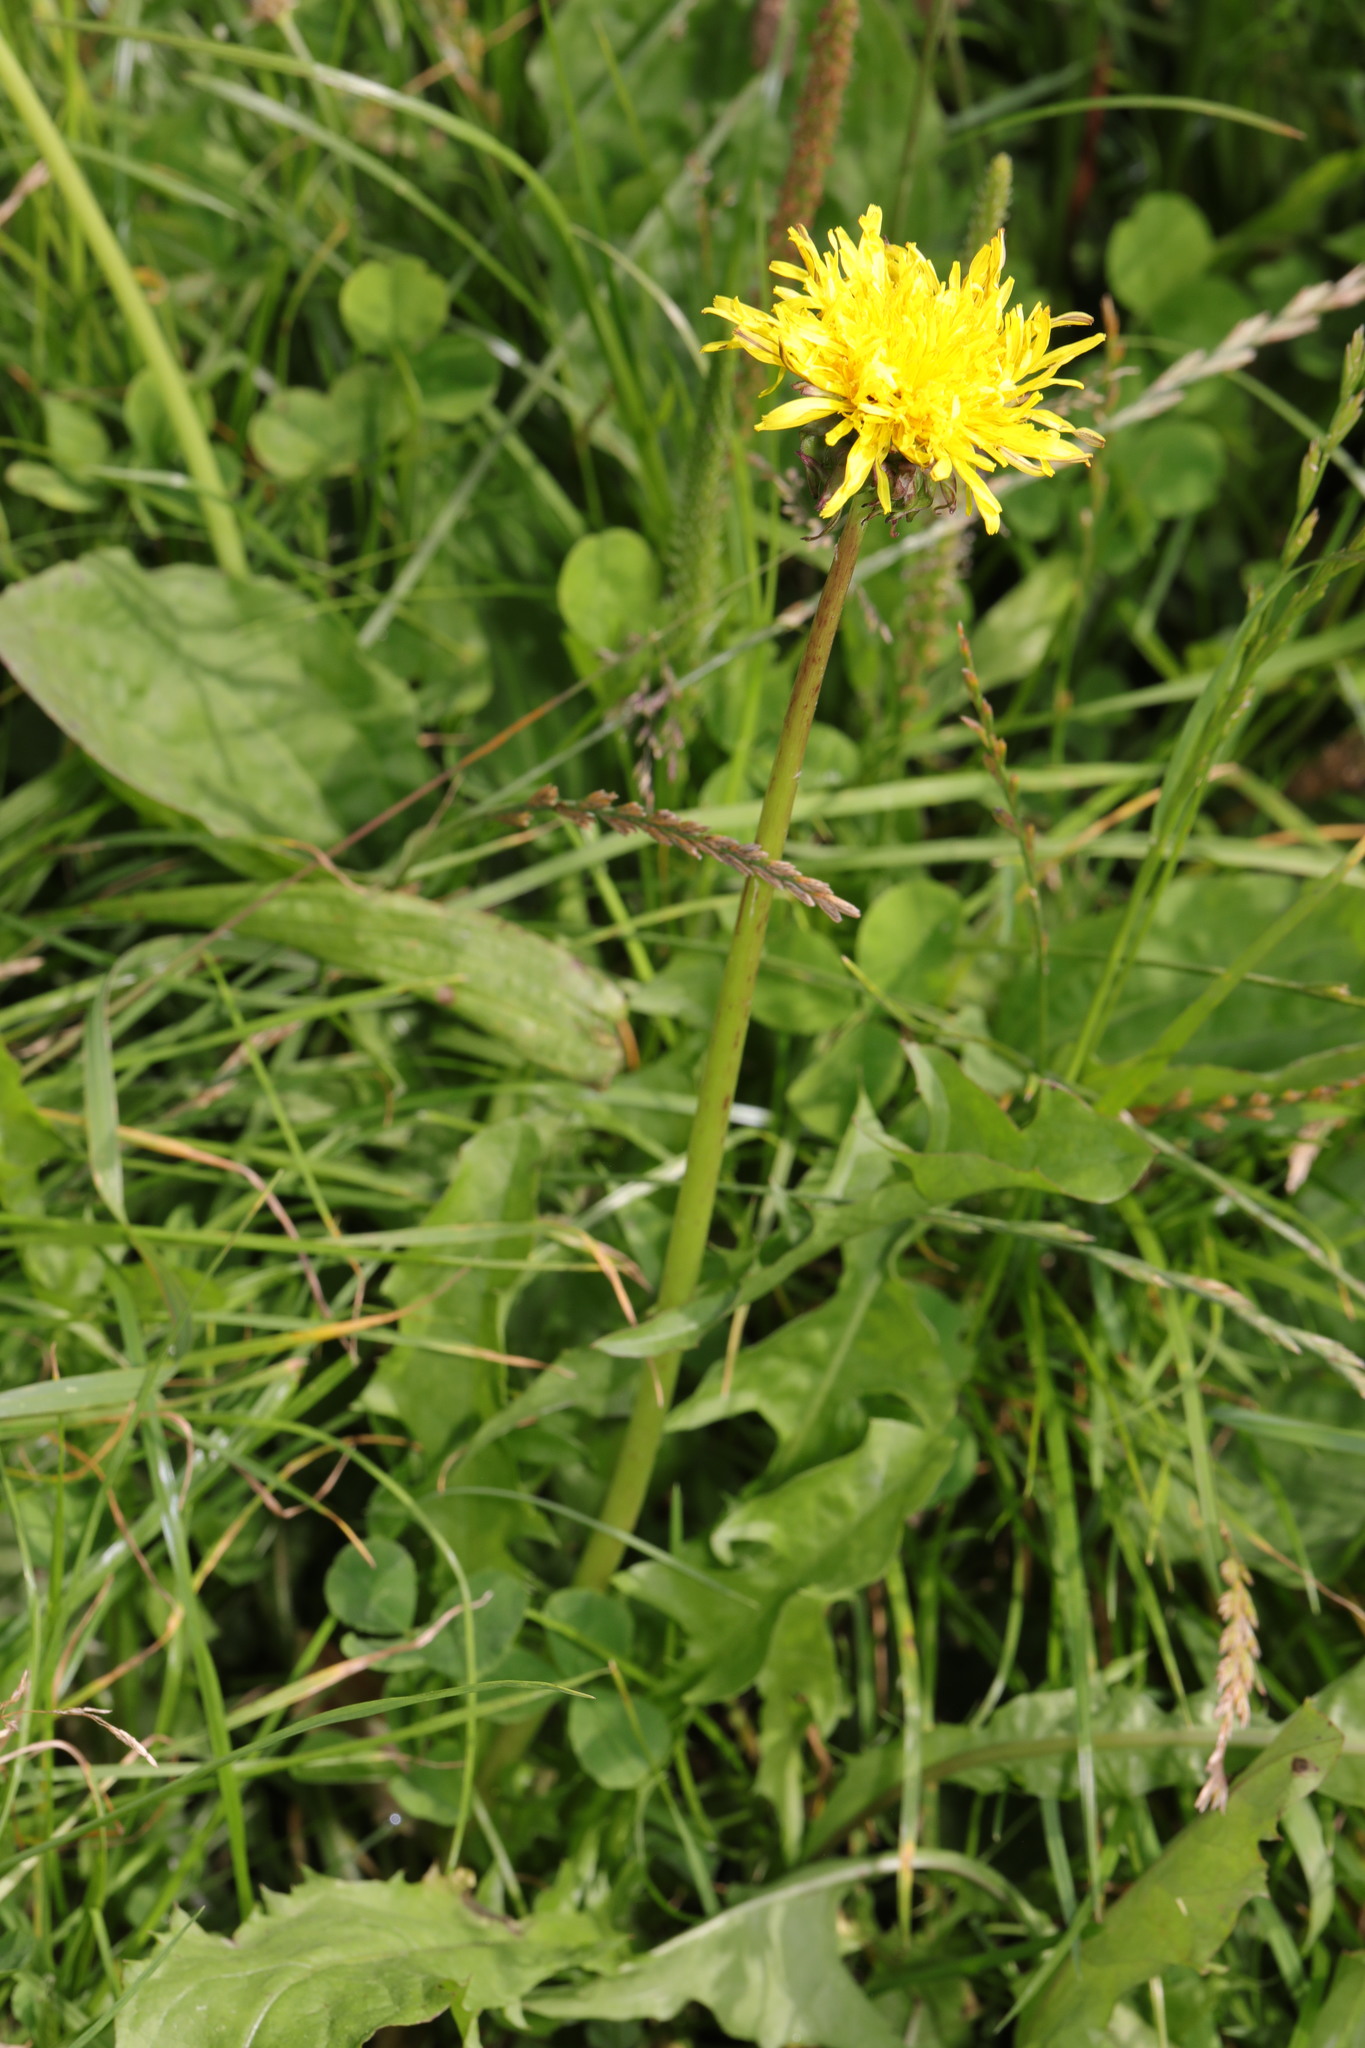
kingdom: Plantae
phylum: Tracheophyta
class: Magnoliopsida
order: Asterales
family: Asteraceae
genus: Taraxacum
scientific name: Taraxacum officinale
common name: Common dandelion
